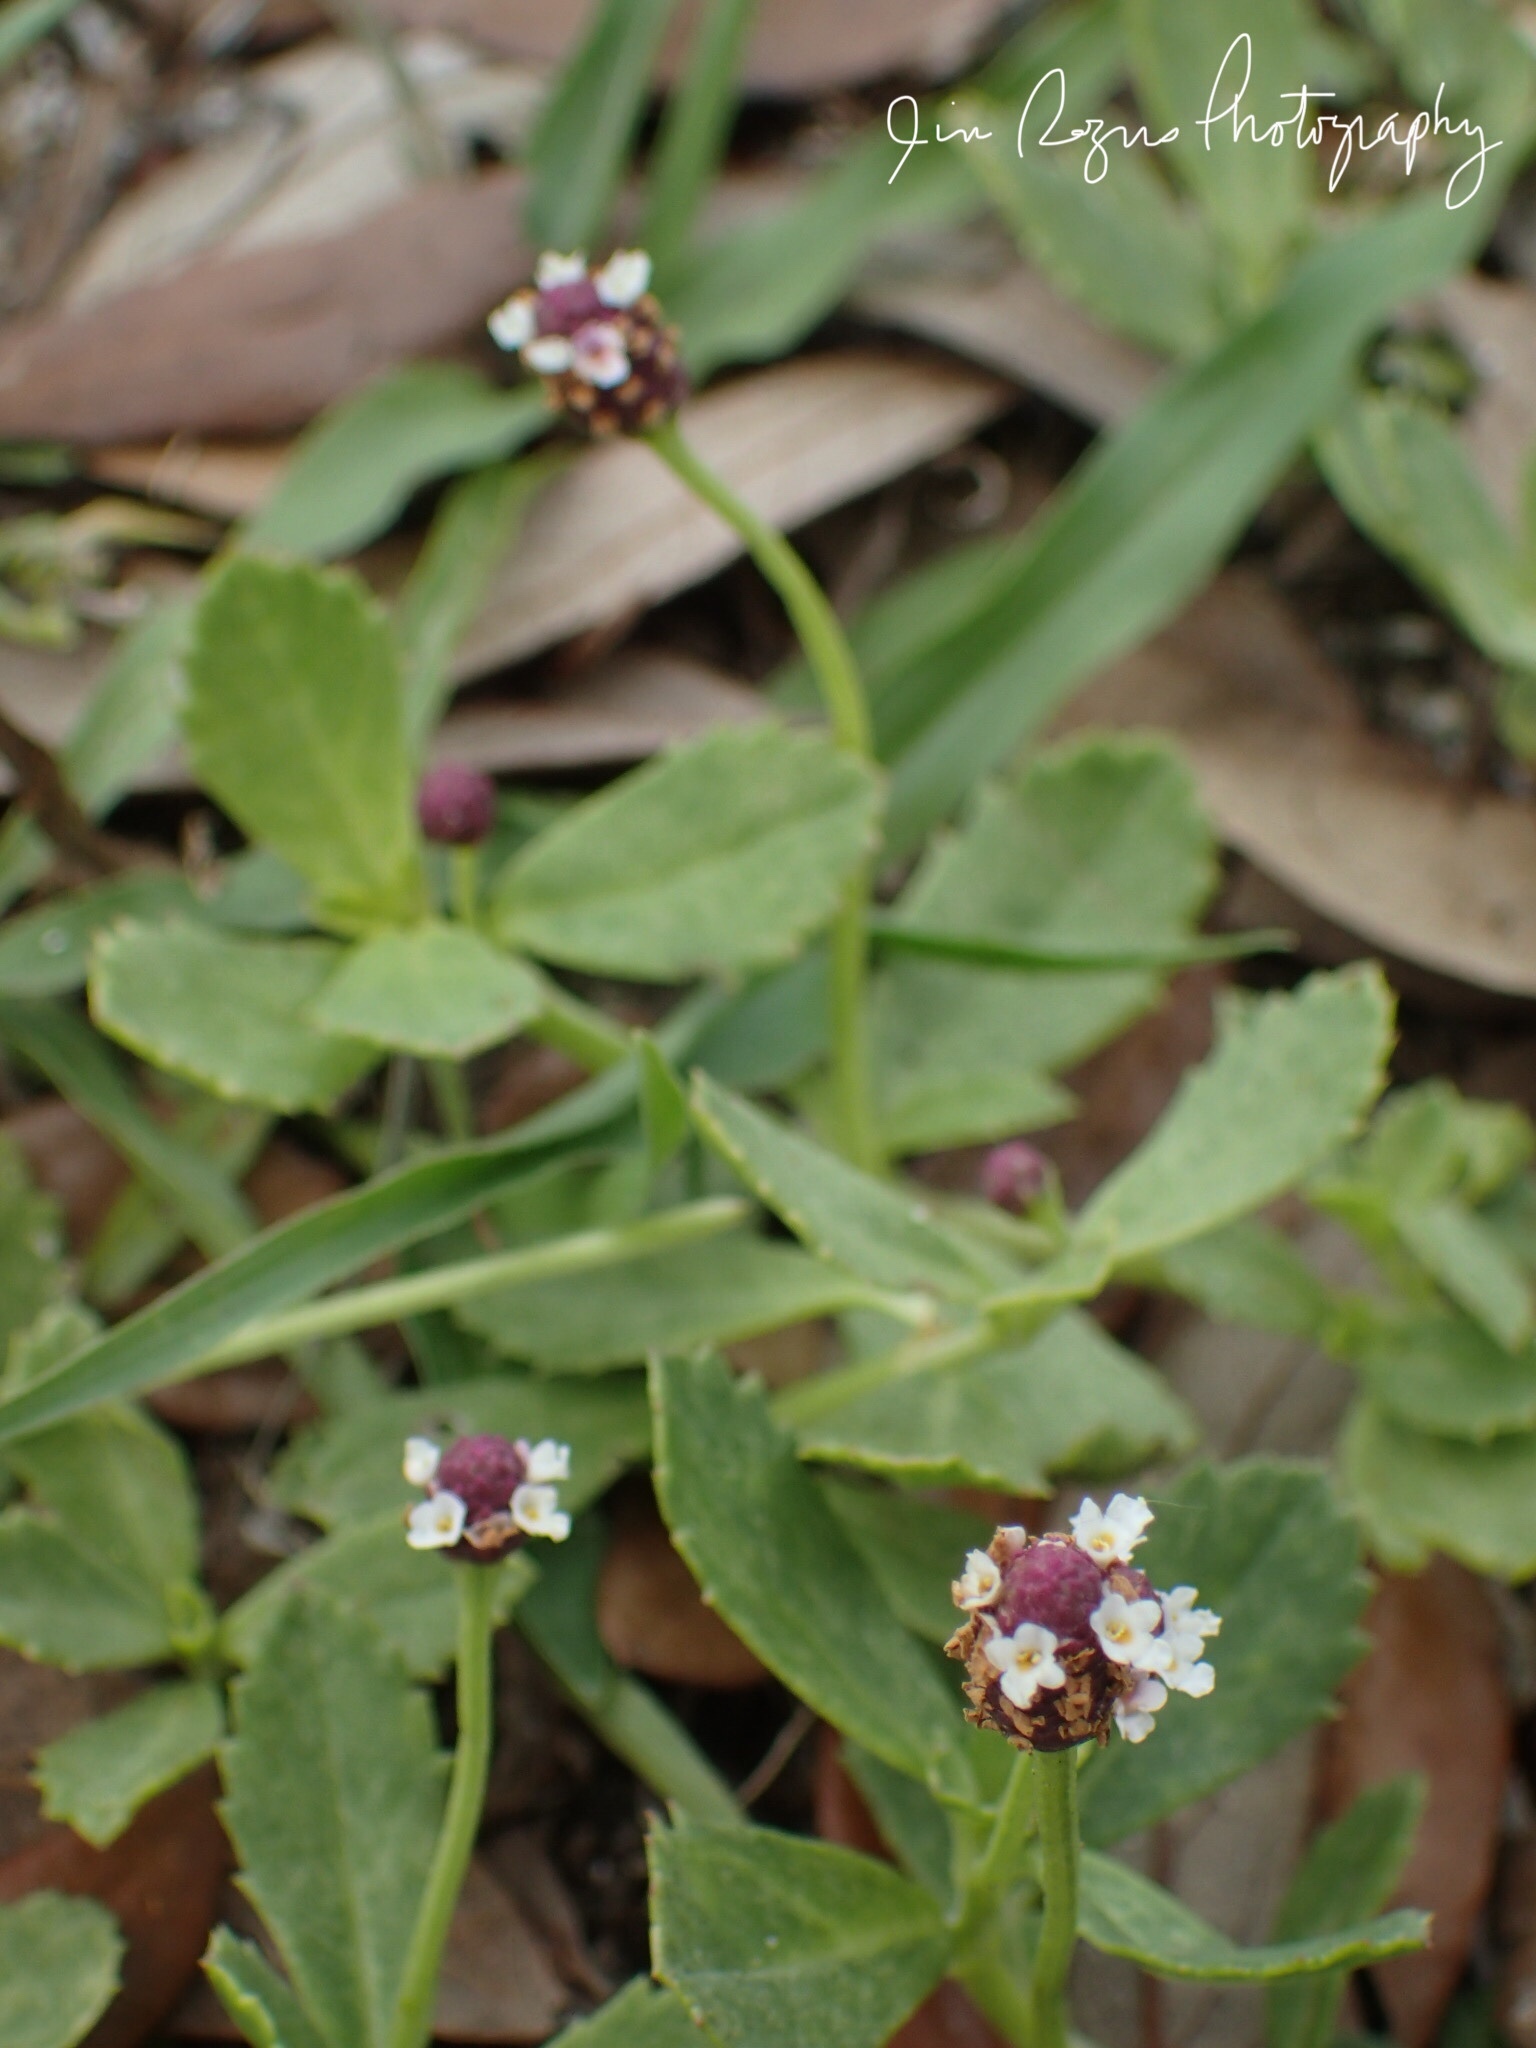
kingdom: Plantae
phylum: Tracheophyta
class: Magnoliopsida
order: Lamiales
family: Verbenaceae
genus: Phyla
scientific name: Phyla nodiflora
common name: Frogfruit
